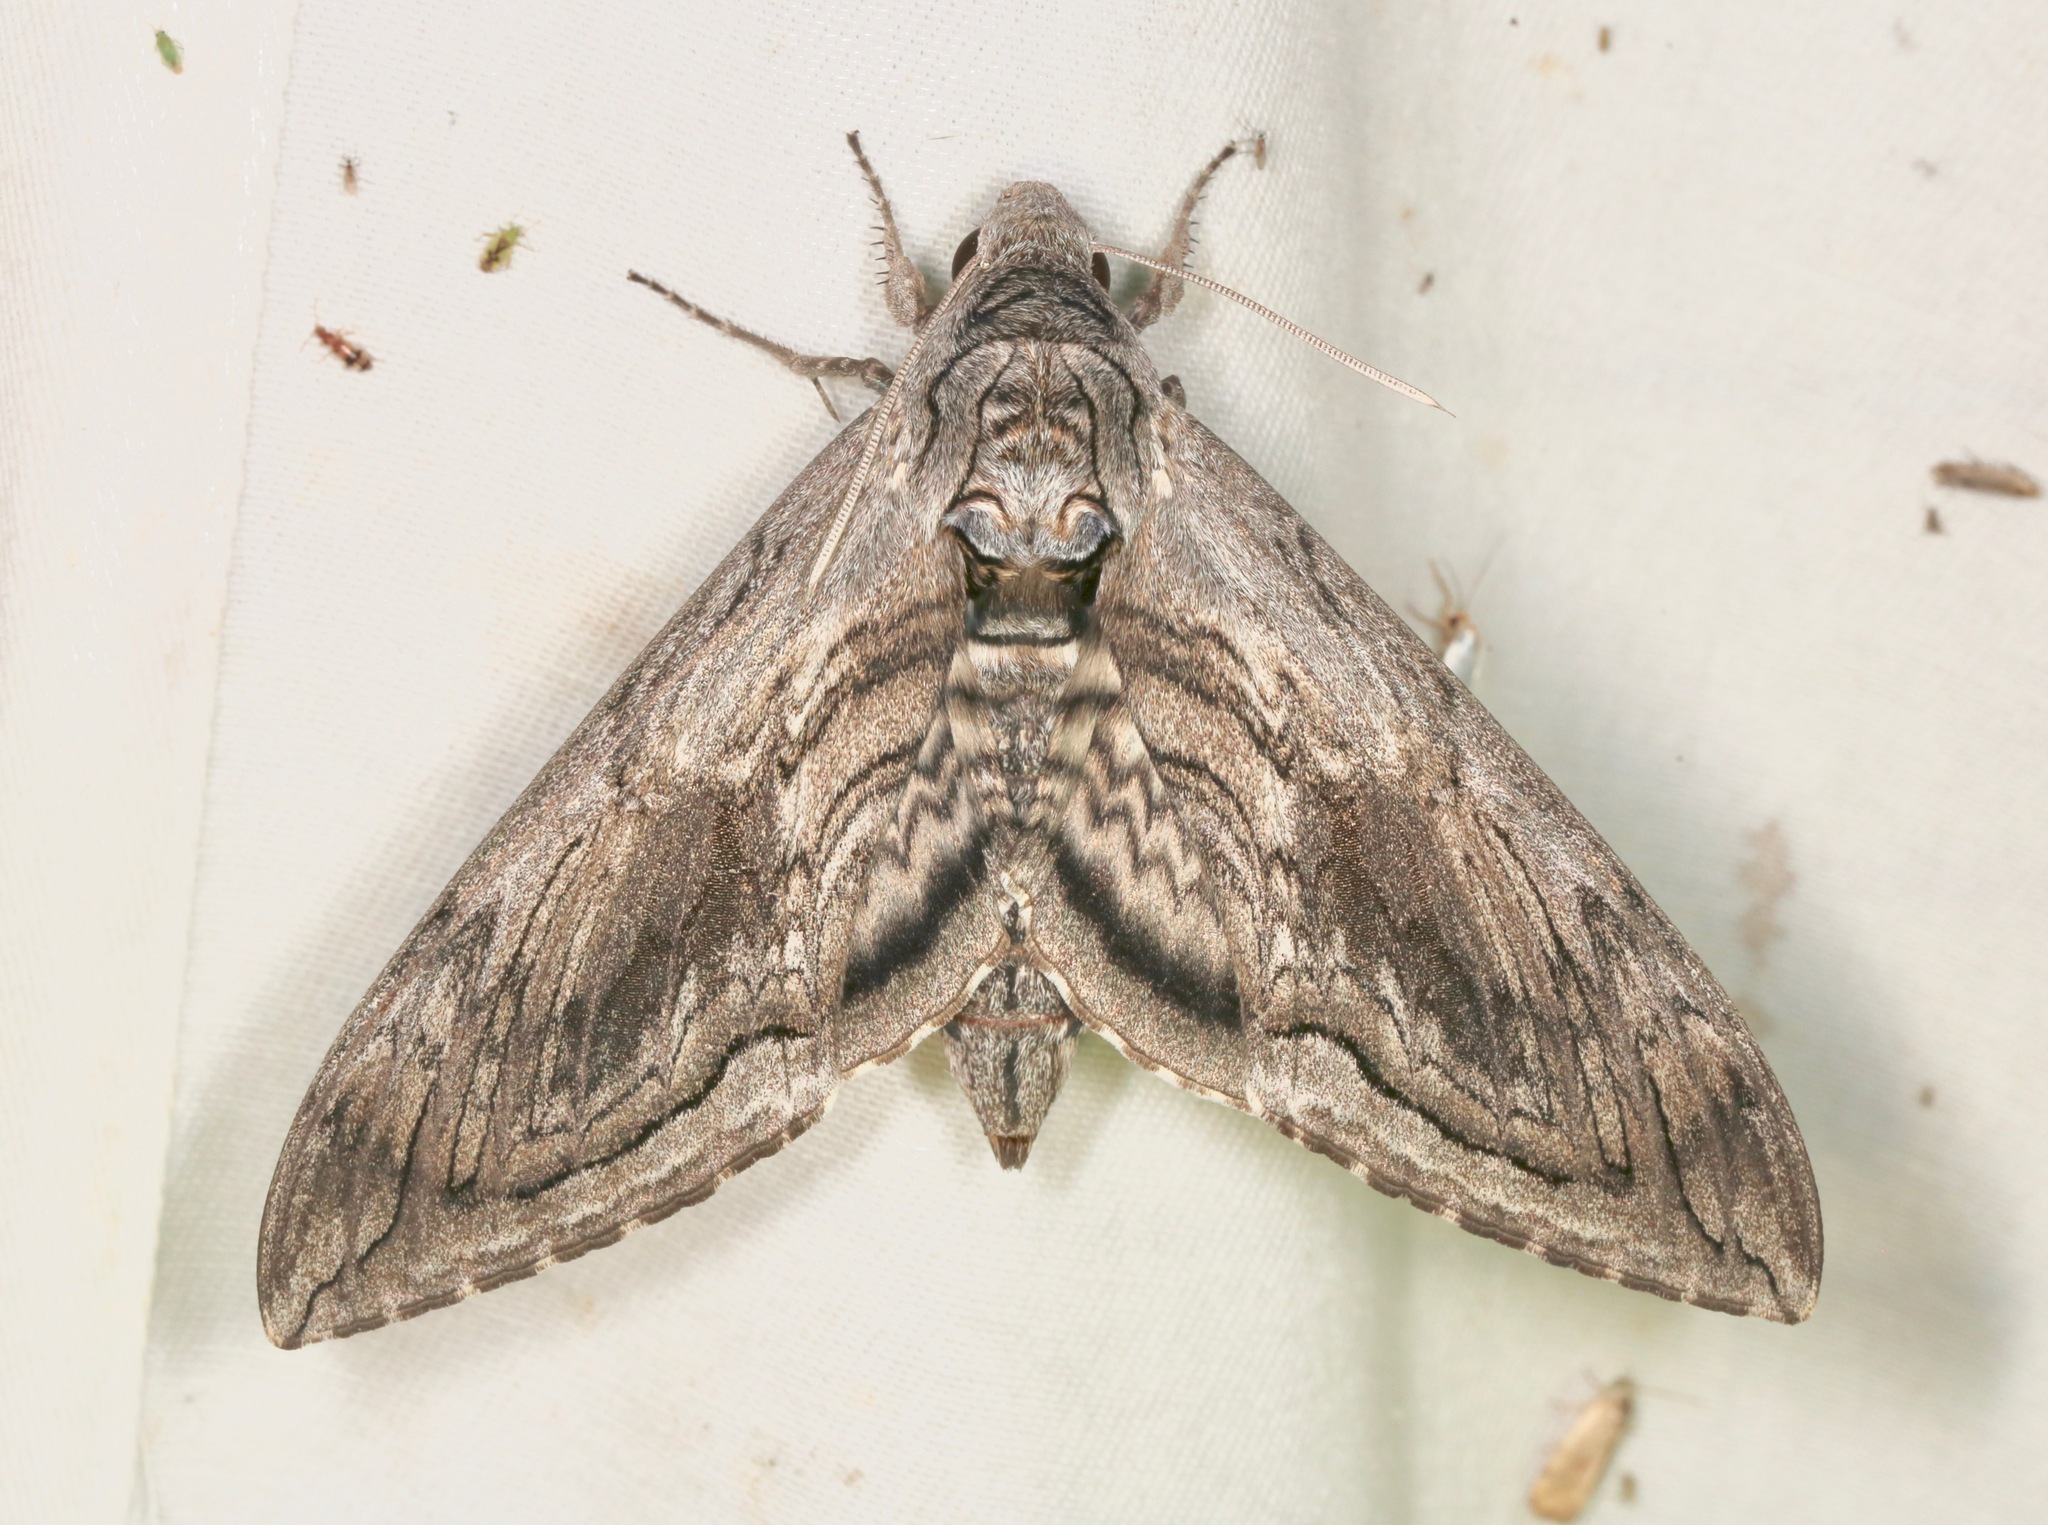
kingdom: Animalia
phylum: Arthropoda
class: Insecta
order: Lepidoptera
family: Sphingidae
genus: Manduca
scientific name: Manduca quinquemaculatus
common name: Five-spotted hawk-moth
